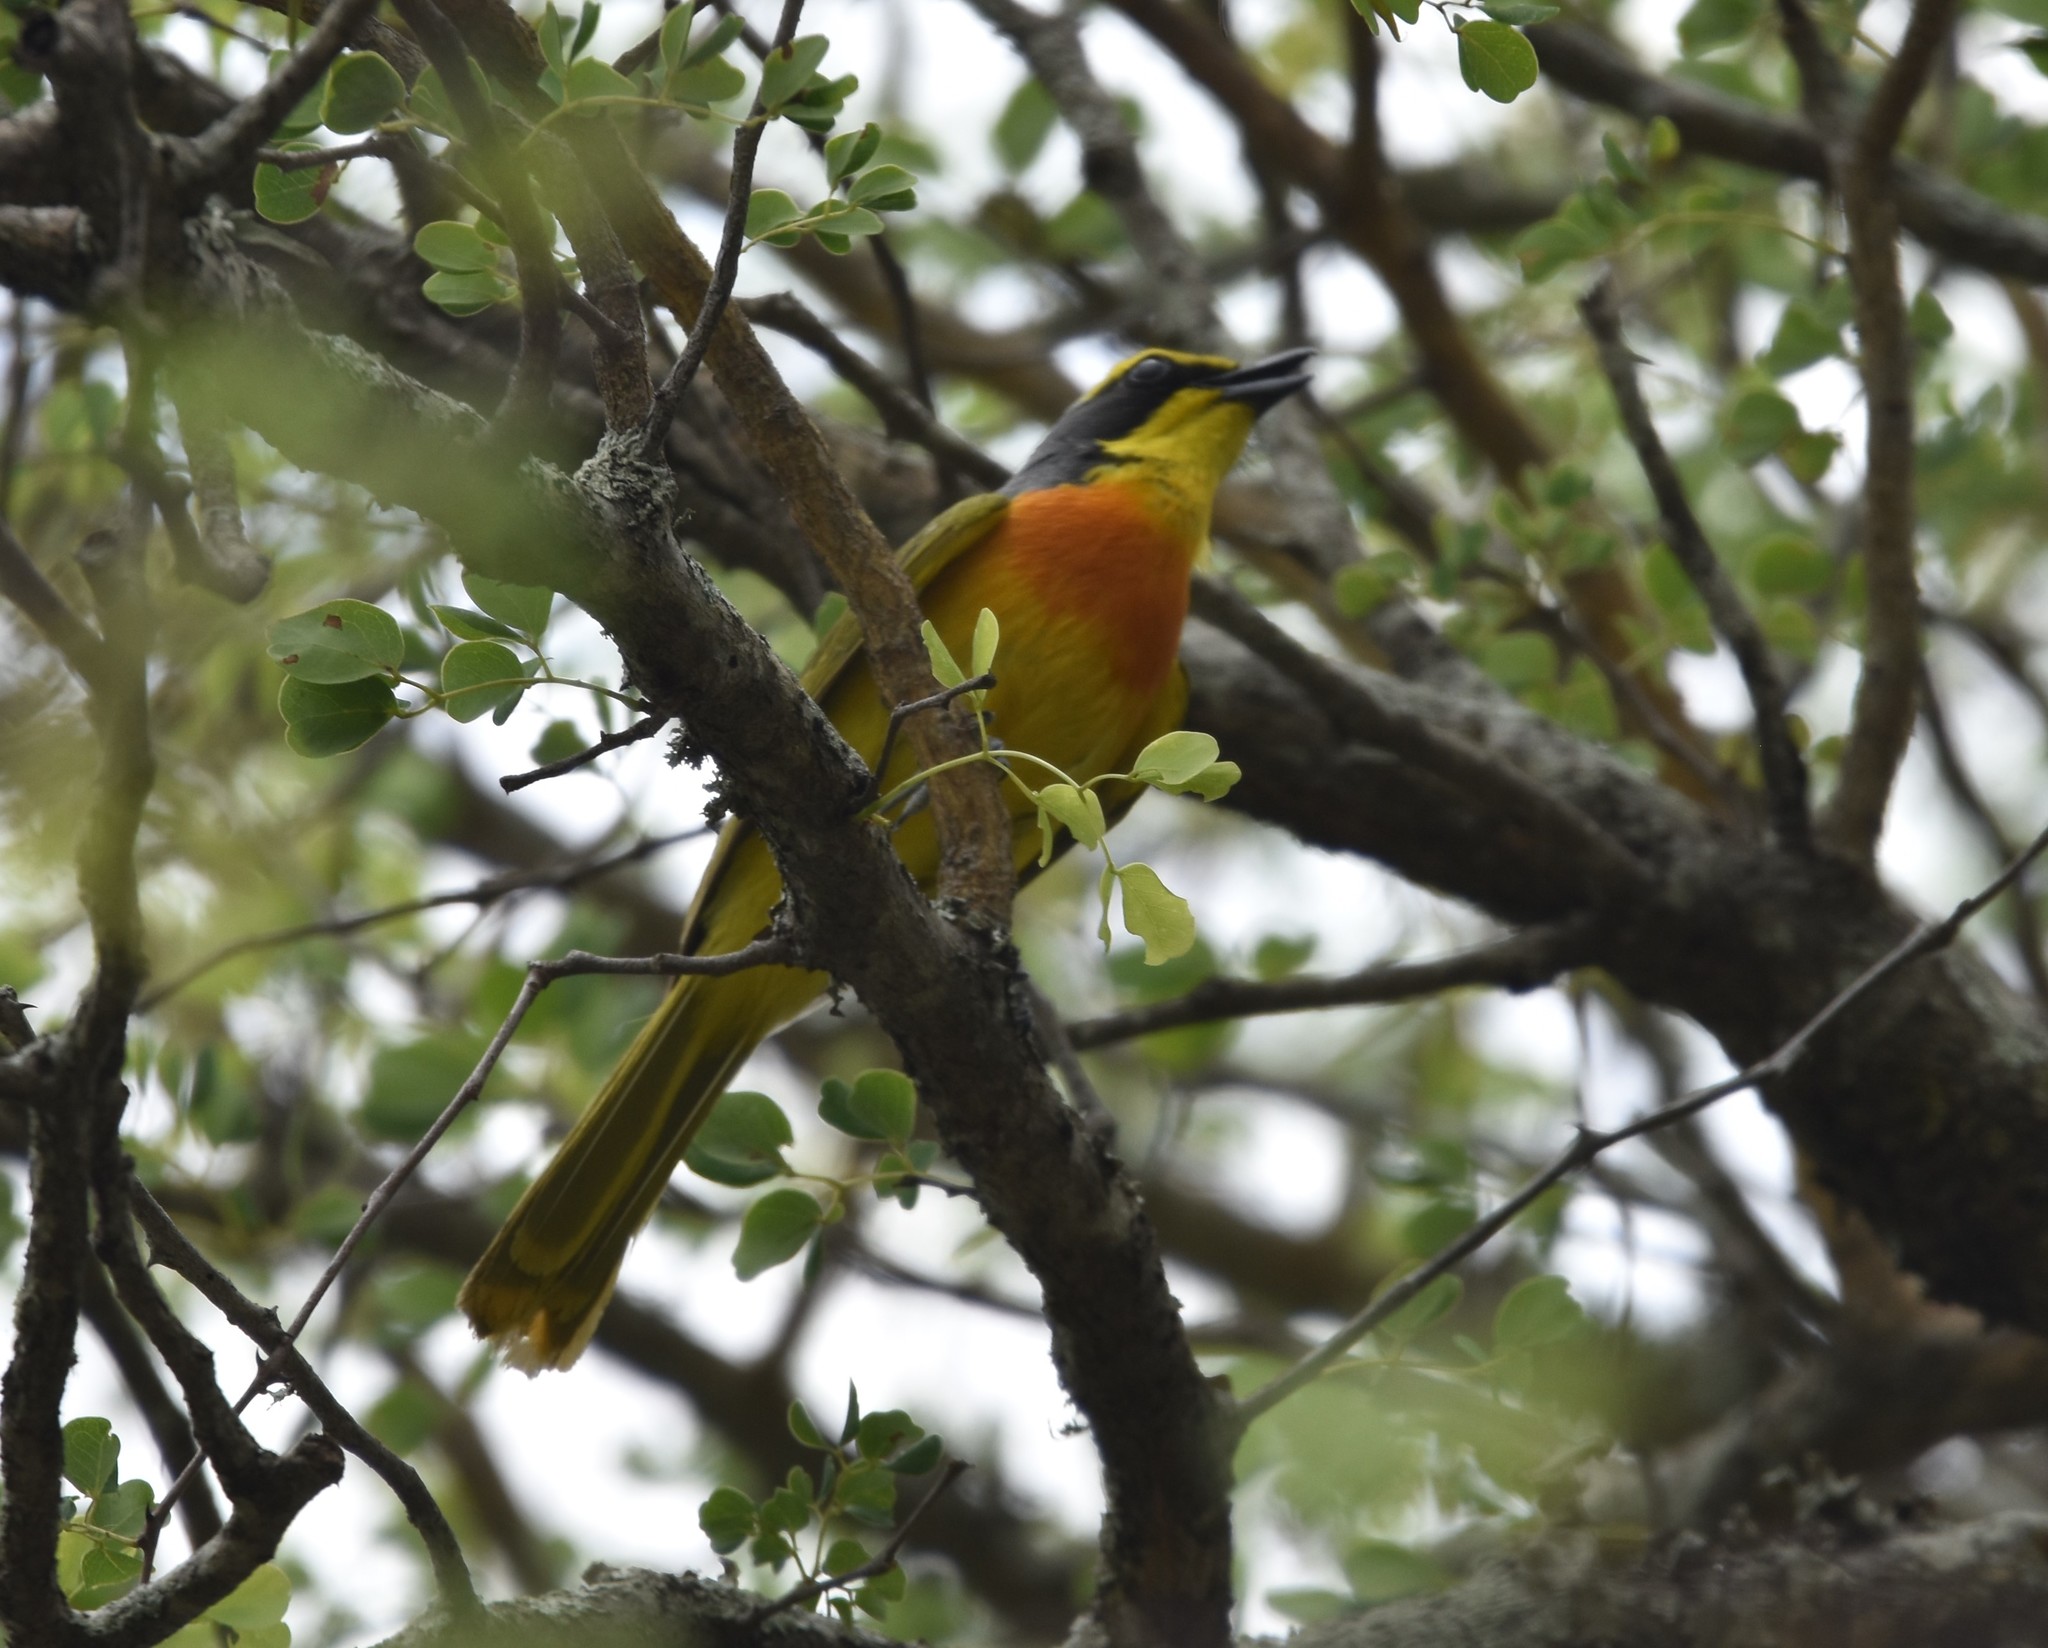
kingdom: Animalia
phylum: Chordata
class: Aves
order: Passeriformes
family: Malaconotidae
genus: Chlorophoneus
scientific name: Chlorophoneus sulfureopectus
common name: Orange-breasted bushshrike
